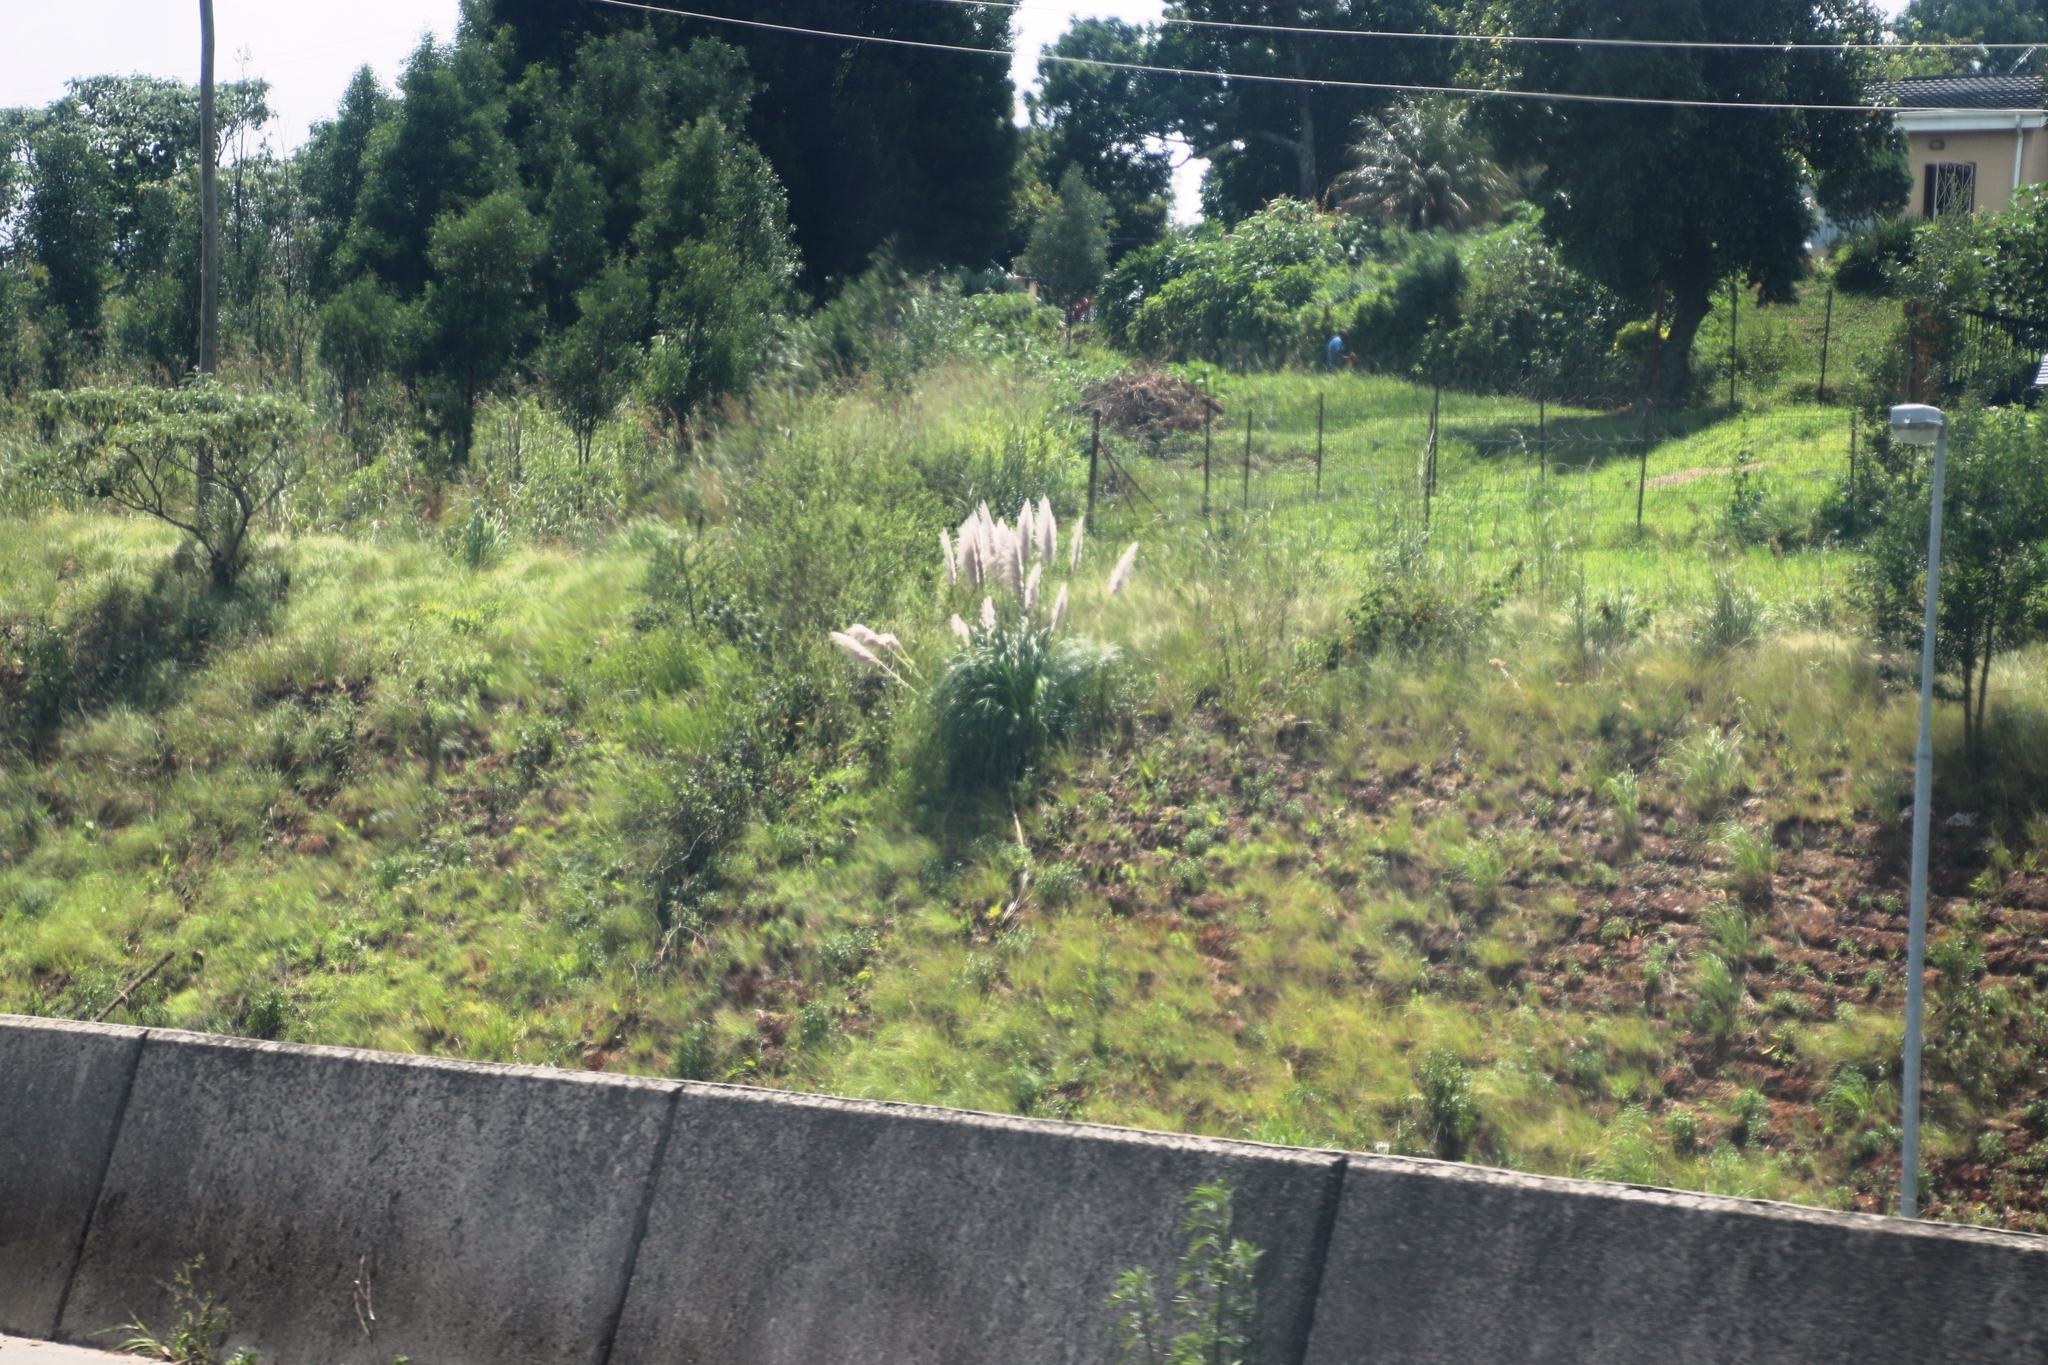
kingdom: Plantae
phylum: Tracheophyta
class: Liliopsida
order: Poales
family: Poaceae
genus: Cortaderia
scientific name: Cortaderia selloana
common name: Uruguayan pampas grass
